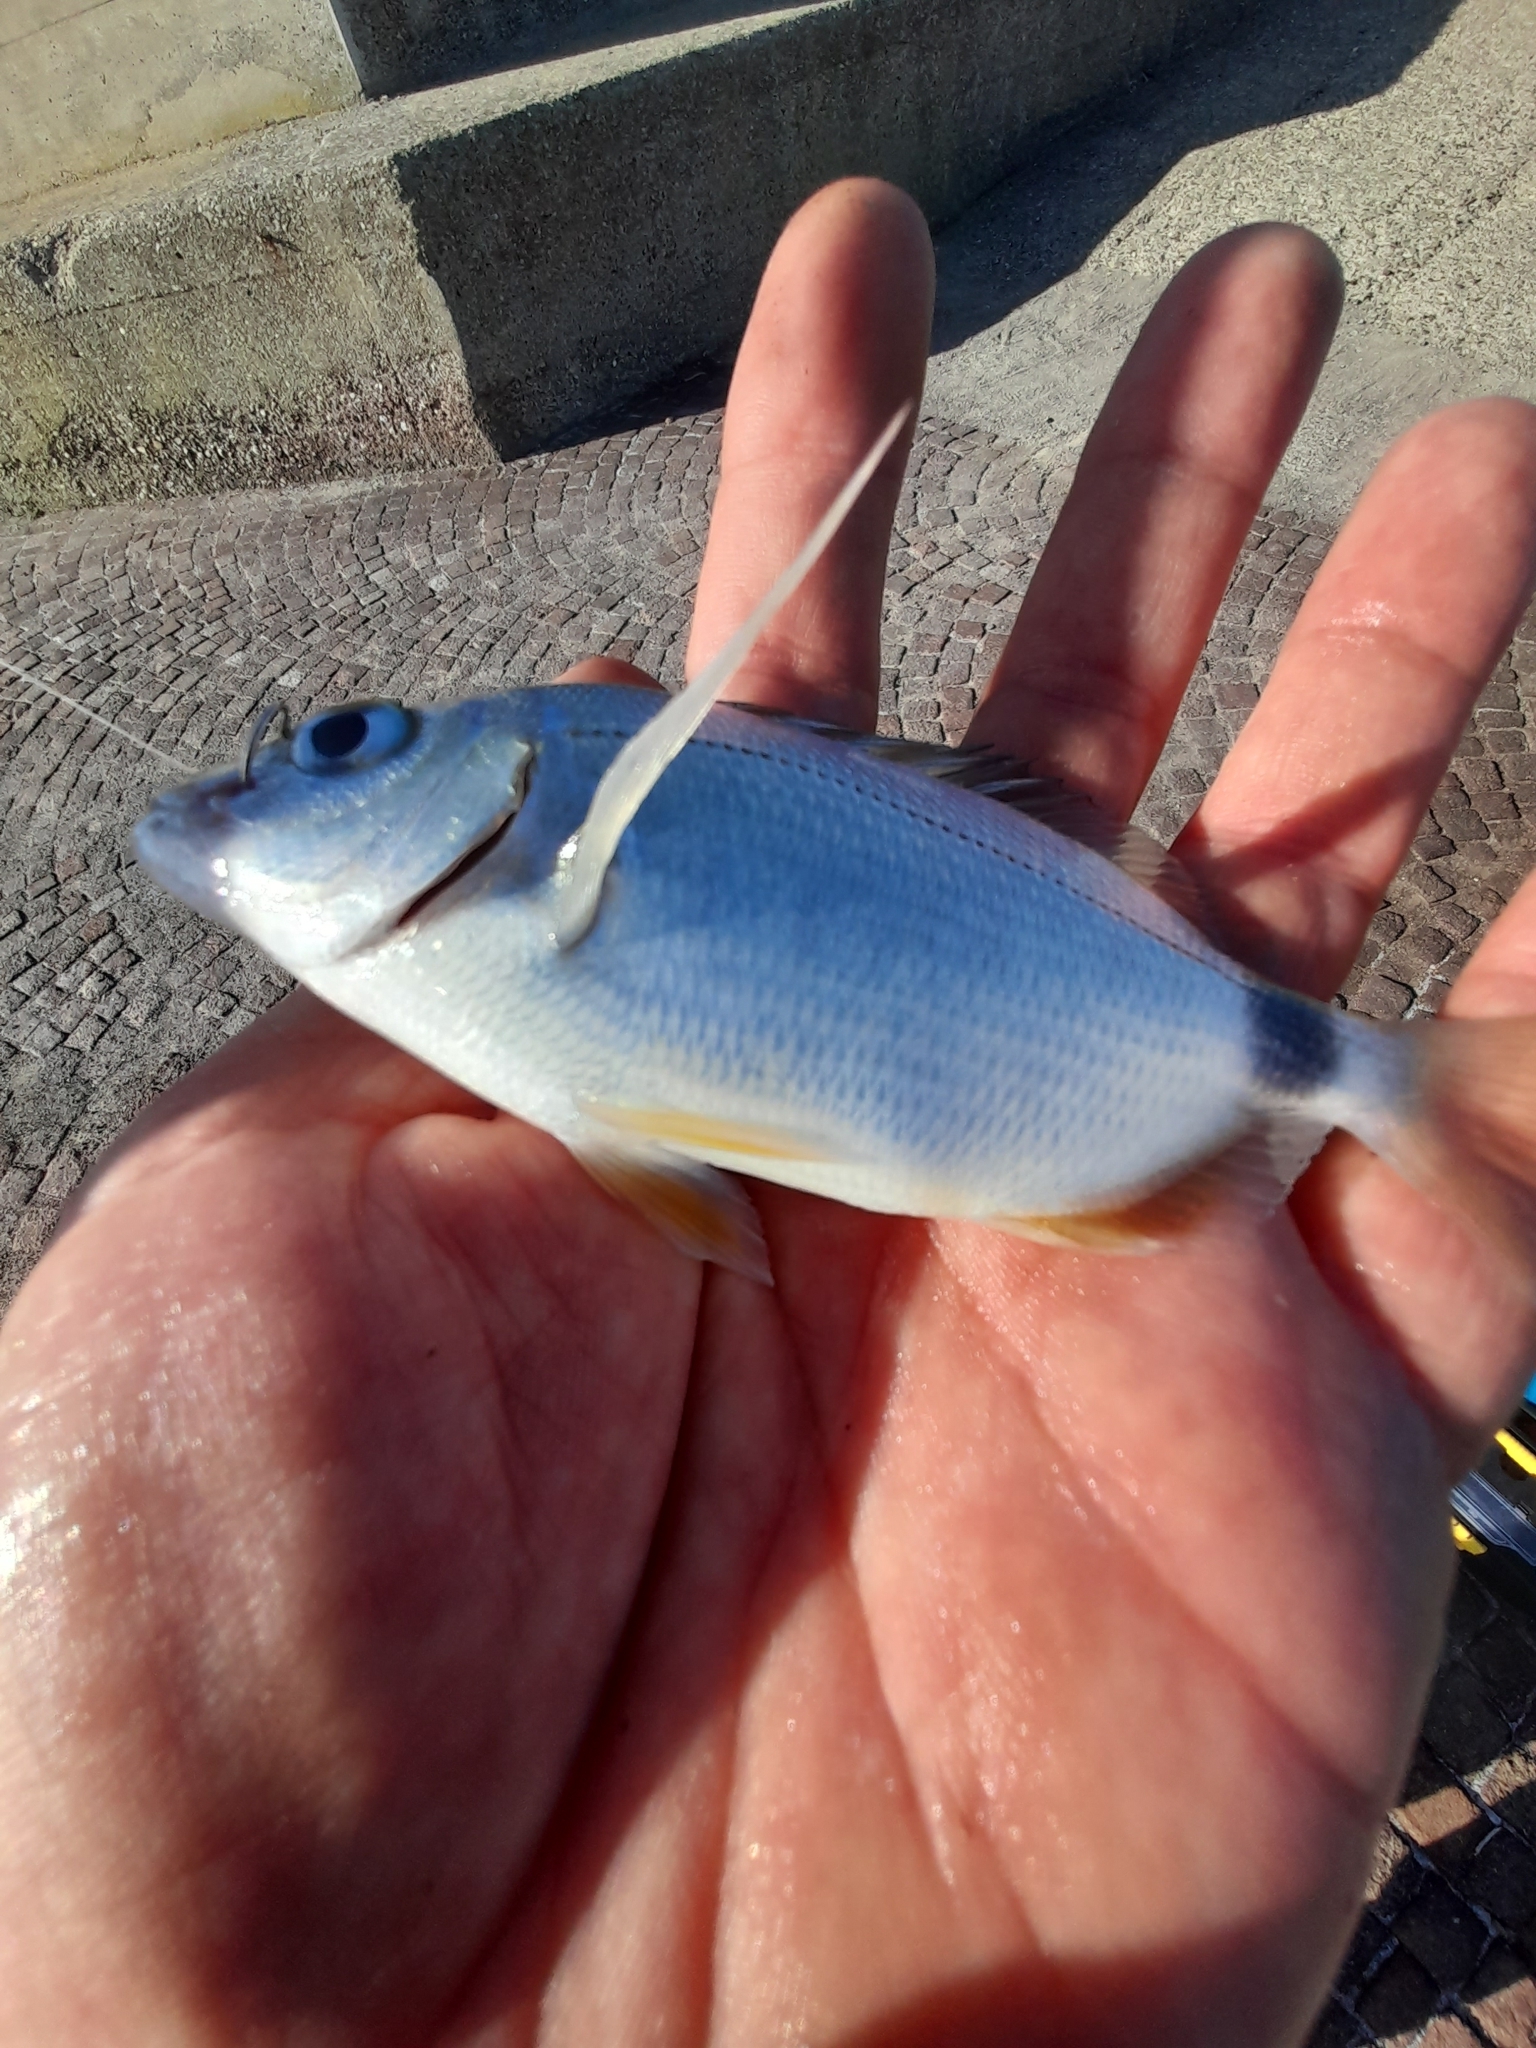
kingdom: Animalia
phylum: Chordata
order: Perciformes
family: Sparidae
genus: Diplodus
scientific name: Diplodus annularis
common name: Annular seabream
